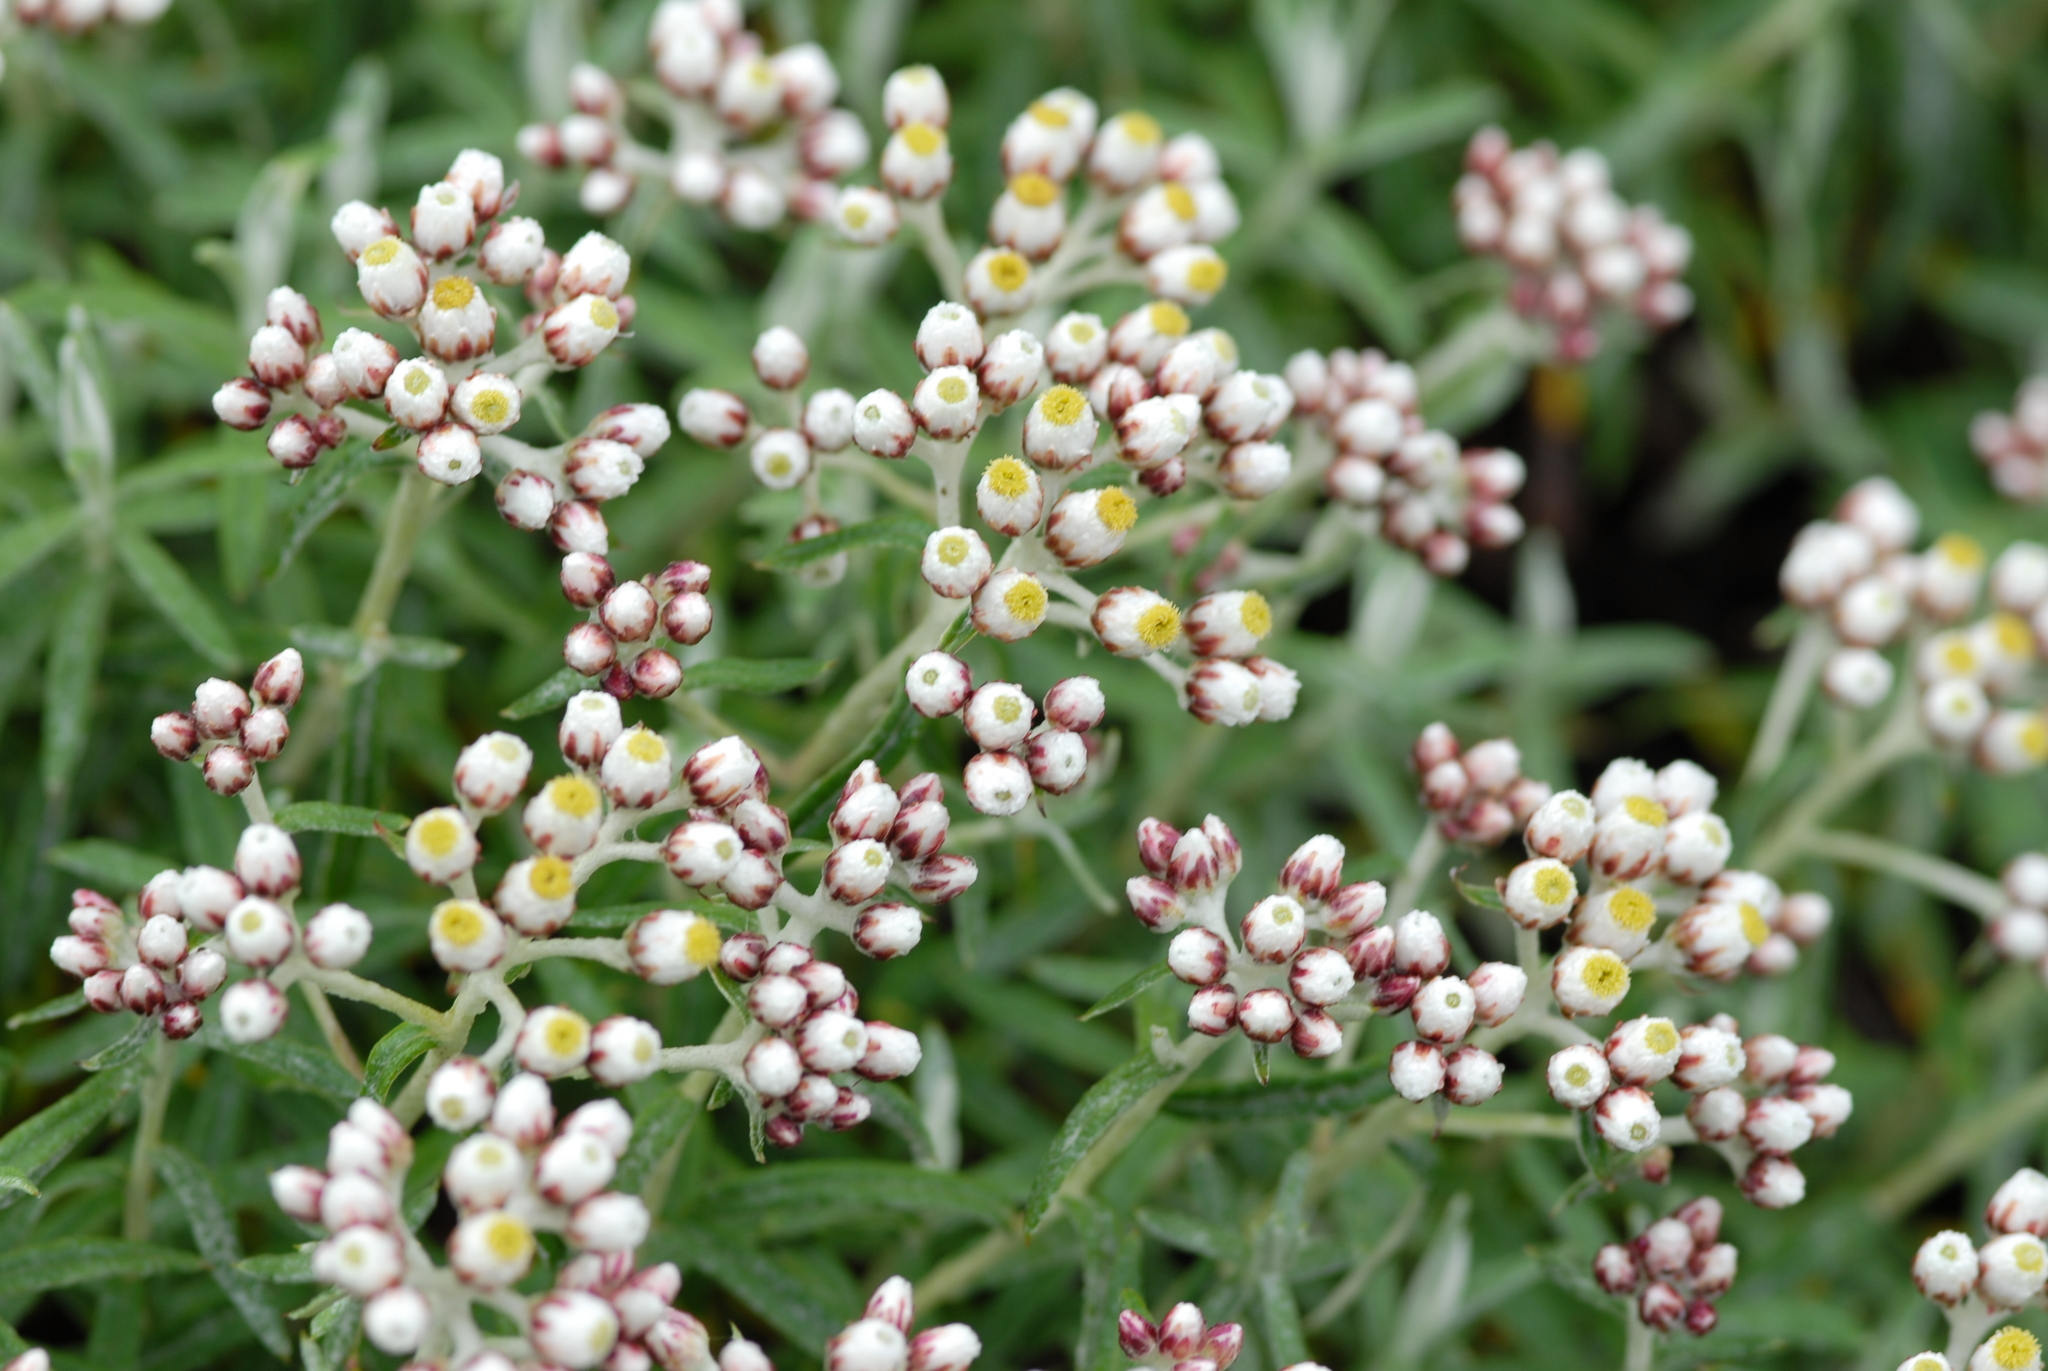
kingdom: Plantae
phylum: Tracheophyta
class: Magnoliopsida
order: Asterales
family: Asteraceae
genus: Anaphalis
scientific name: Anaphalis morrisonicola
